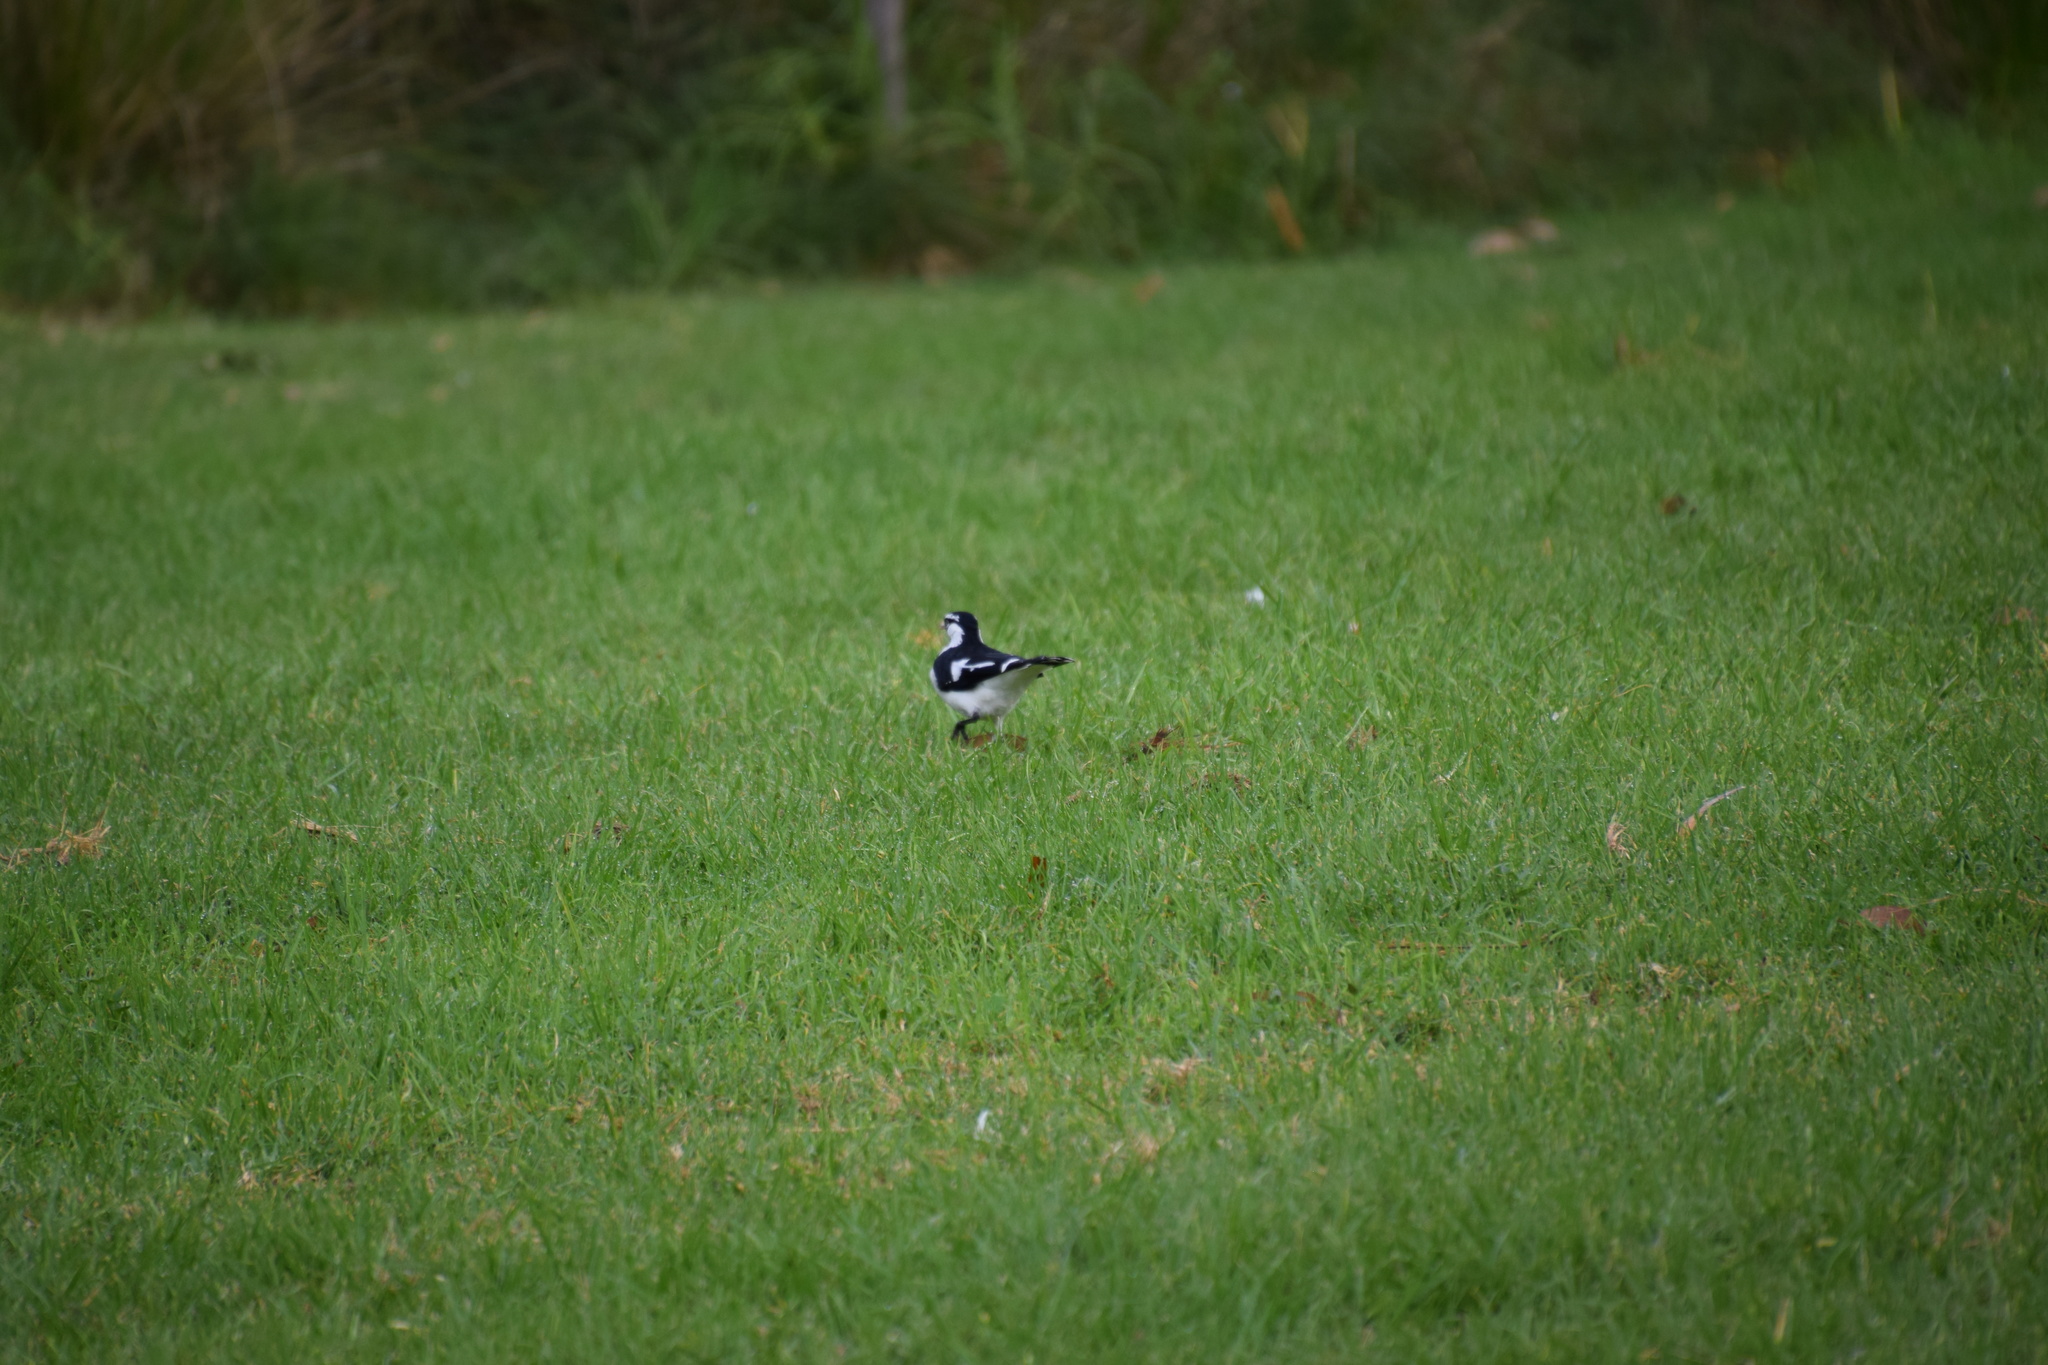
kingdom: Animalia
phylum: Chordata
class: Aves
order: Passeriformes
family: Monarchidae
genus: Grallina
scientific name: Grallina cyanoleuca
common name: Magpie-lark
